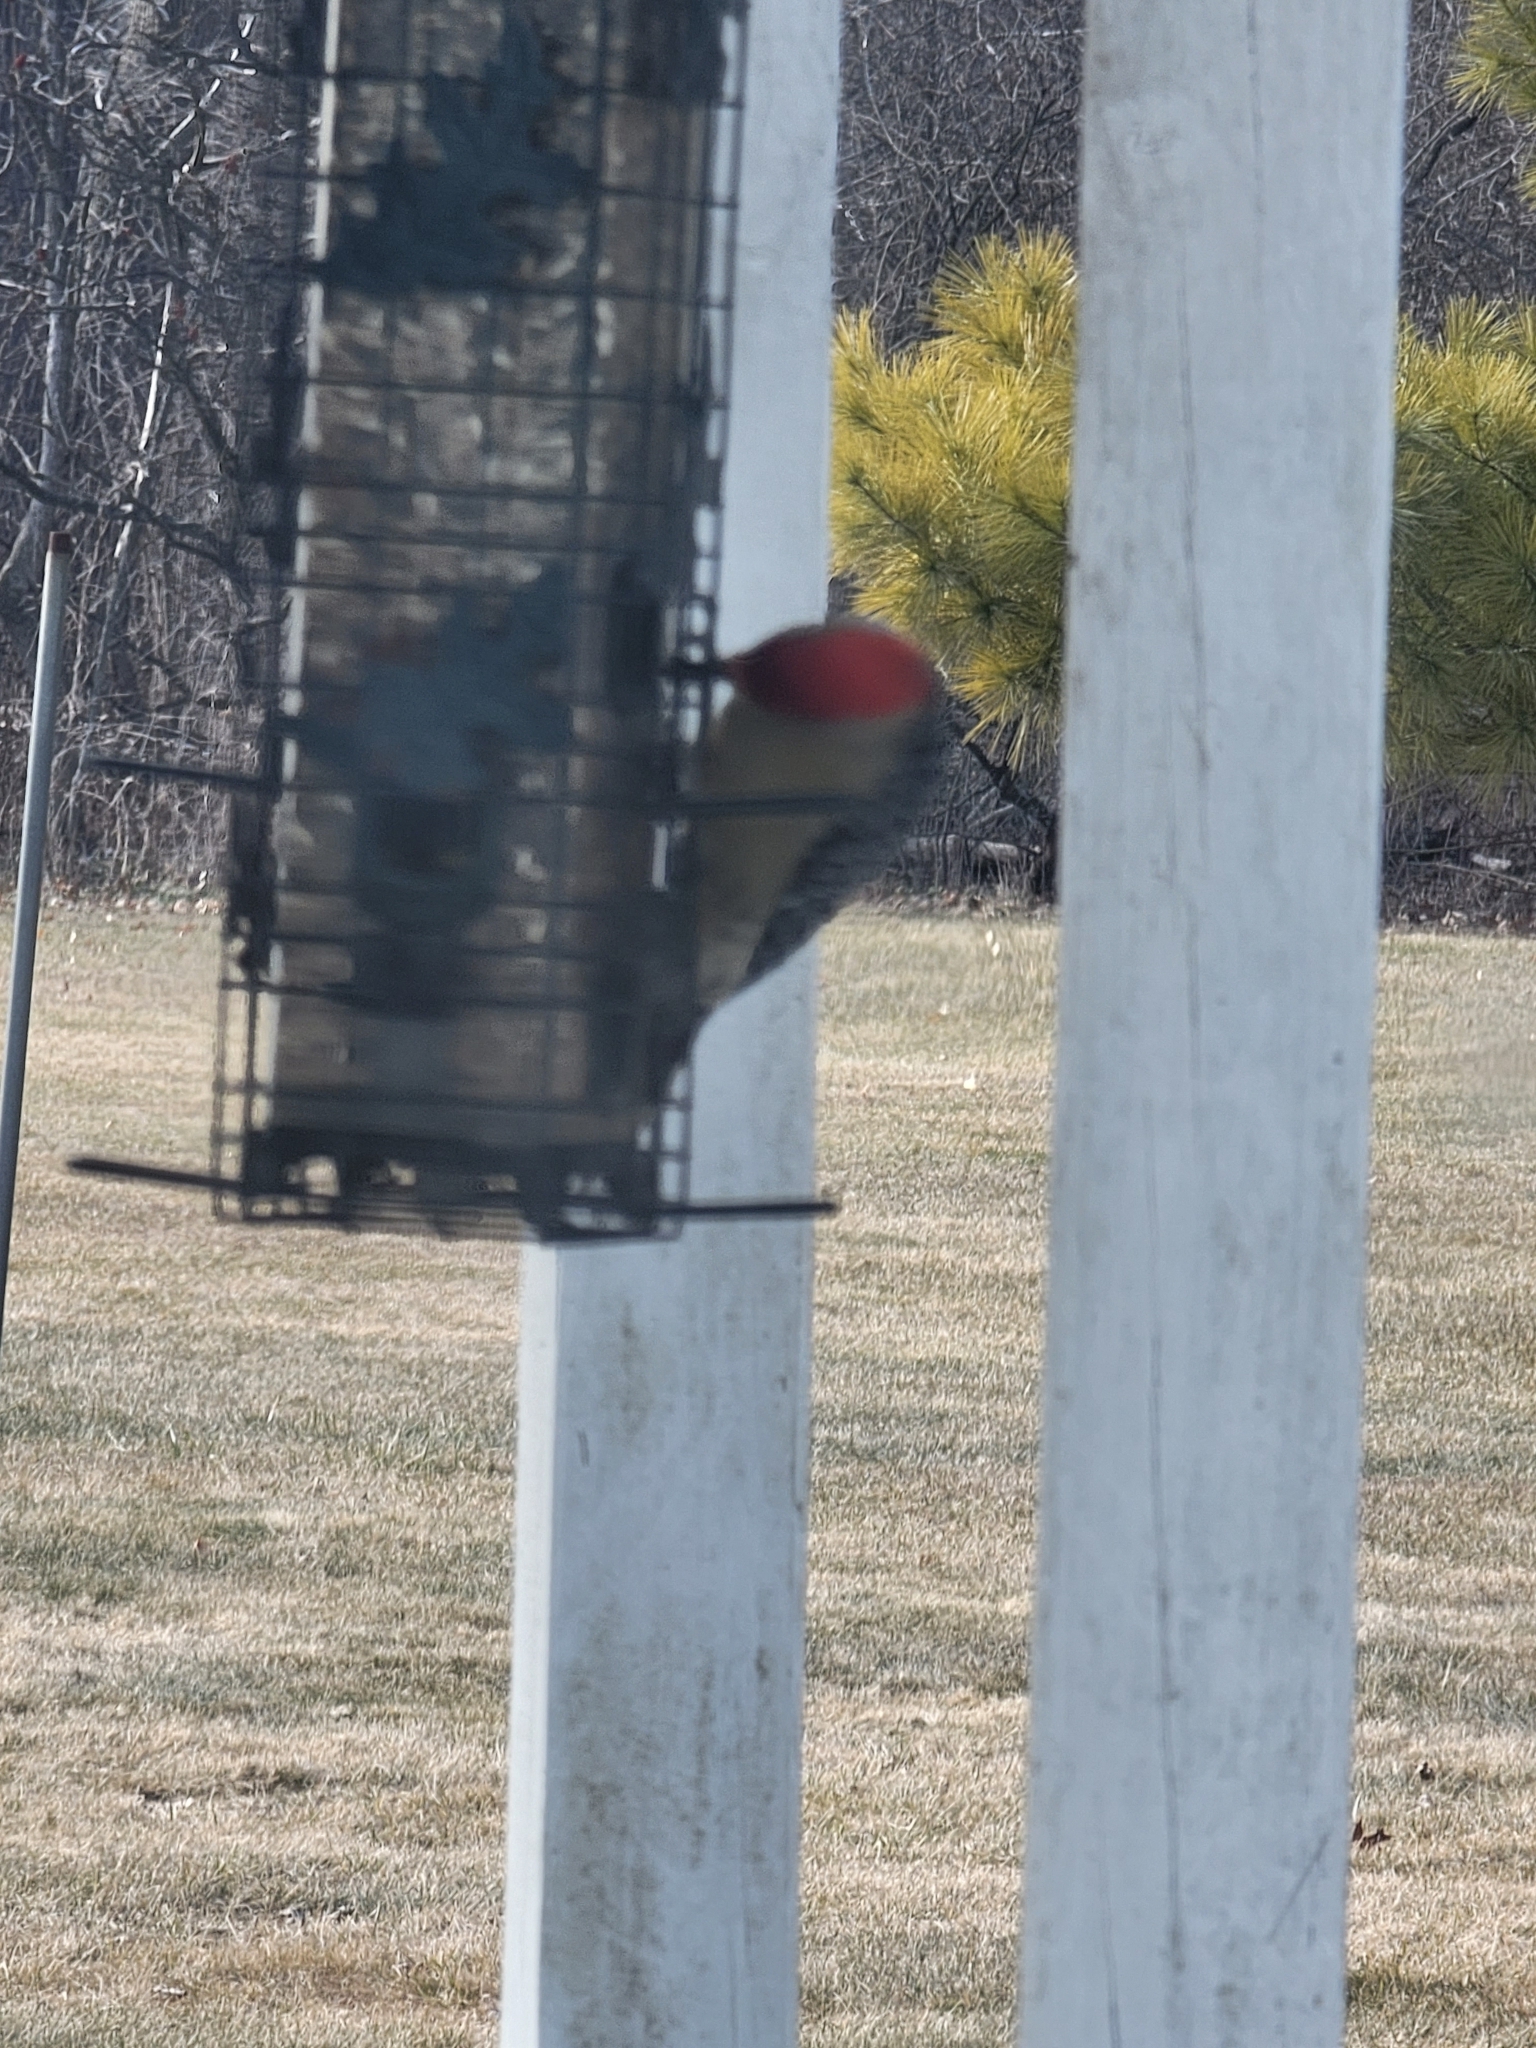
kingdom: Animalia
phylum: Chordata
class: Aves
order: Piciformes
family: Picidae
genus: Melanerpes
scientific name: Melanerpes carolinus
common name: Red-bellied woodpecker
